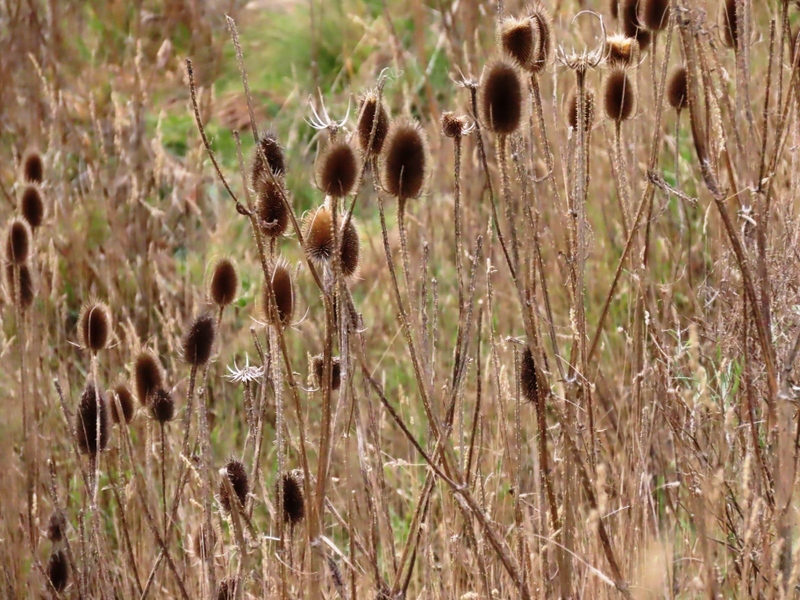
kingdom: Plantae
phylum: Tracheophyta
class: Magnoliopsida
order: Dipsacales
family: Caprifoliaceae
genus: Dipsacus
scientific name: Dipsacus fullonum
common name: Teasel
